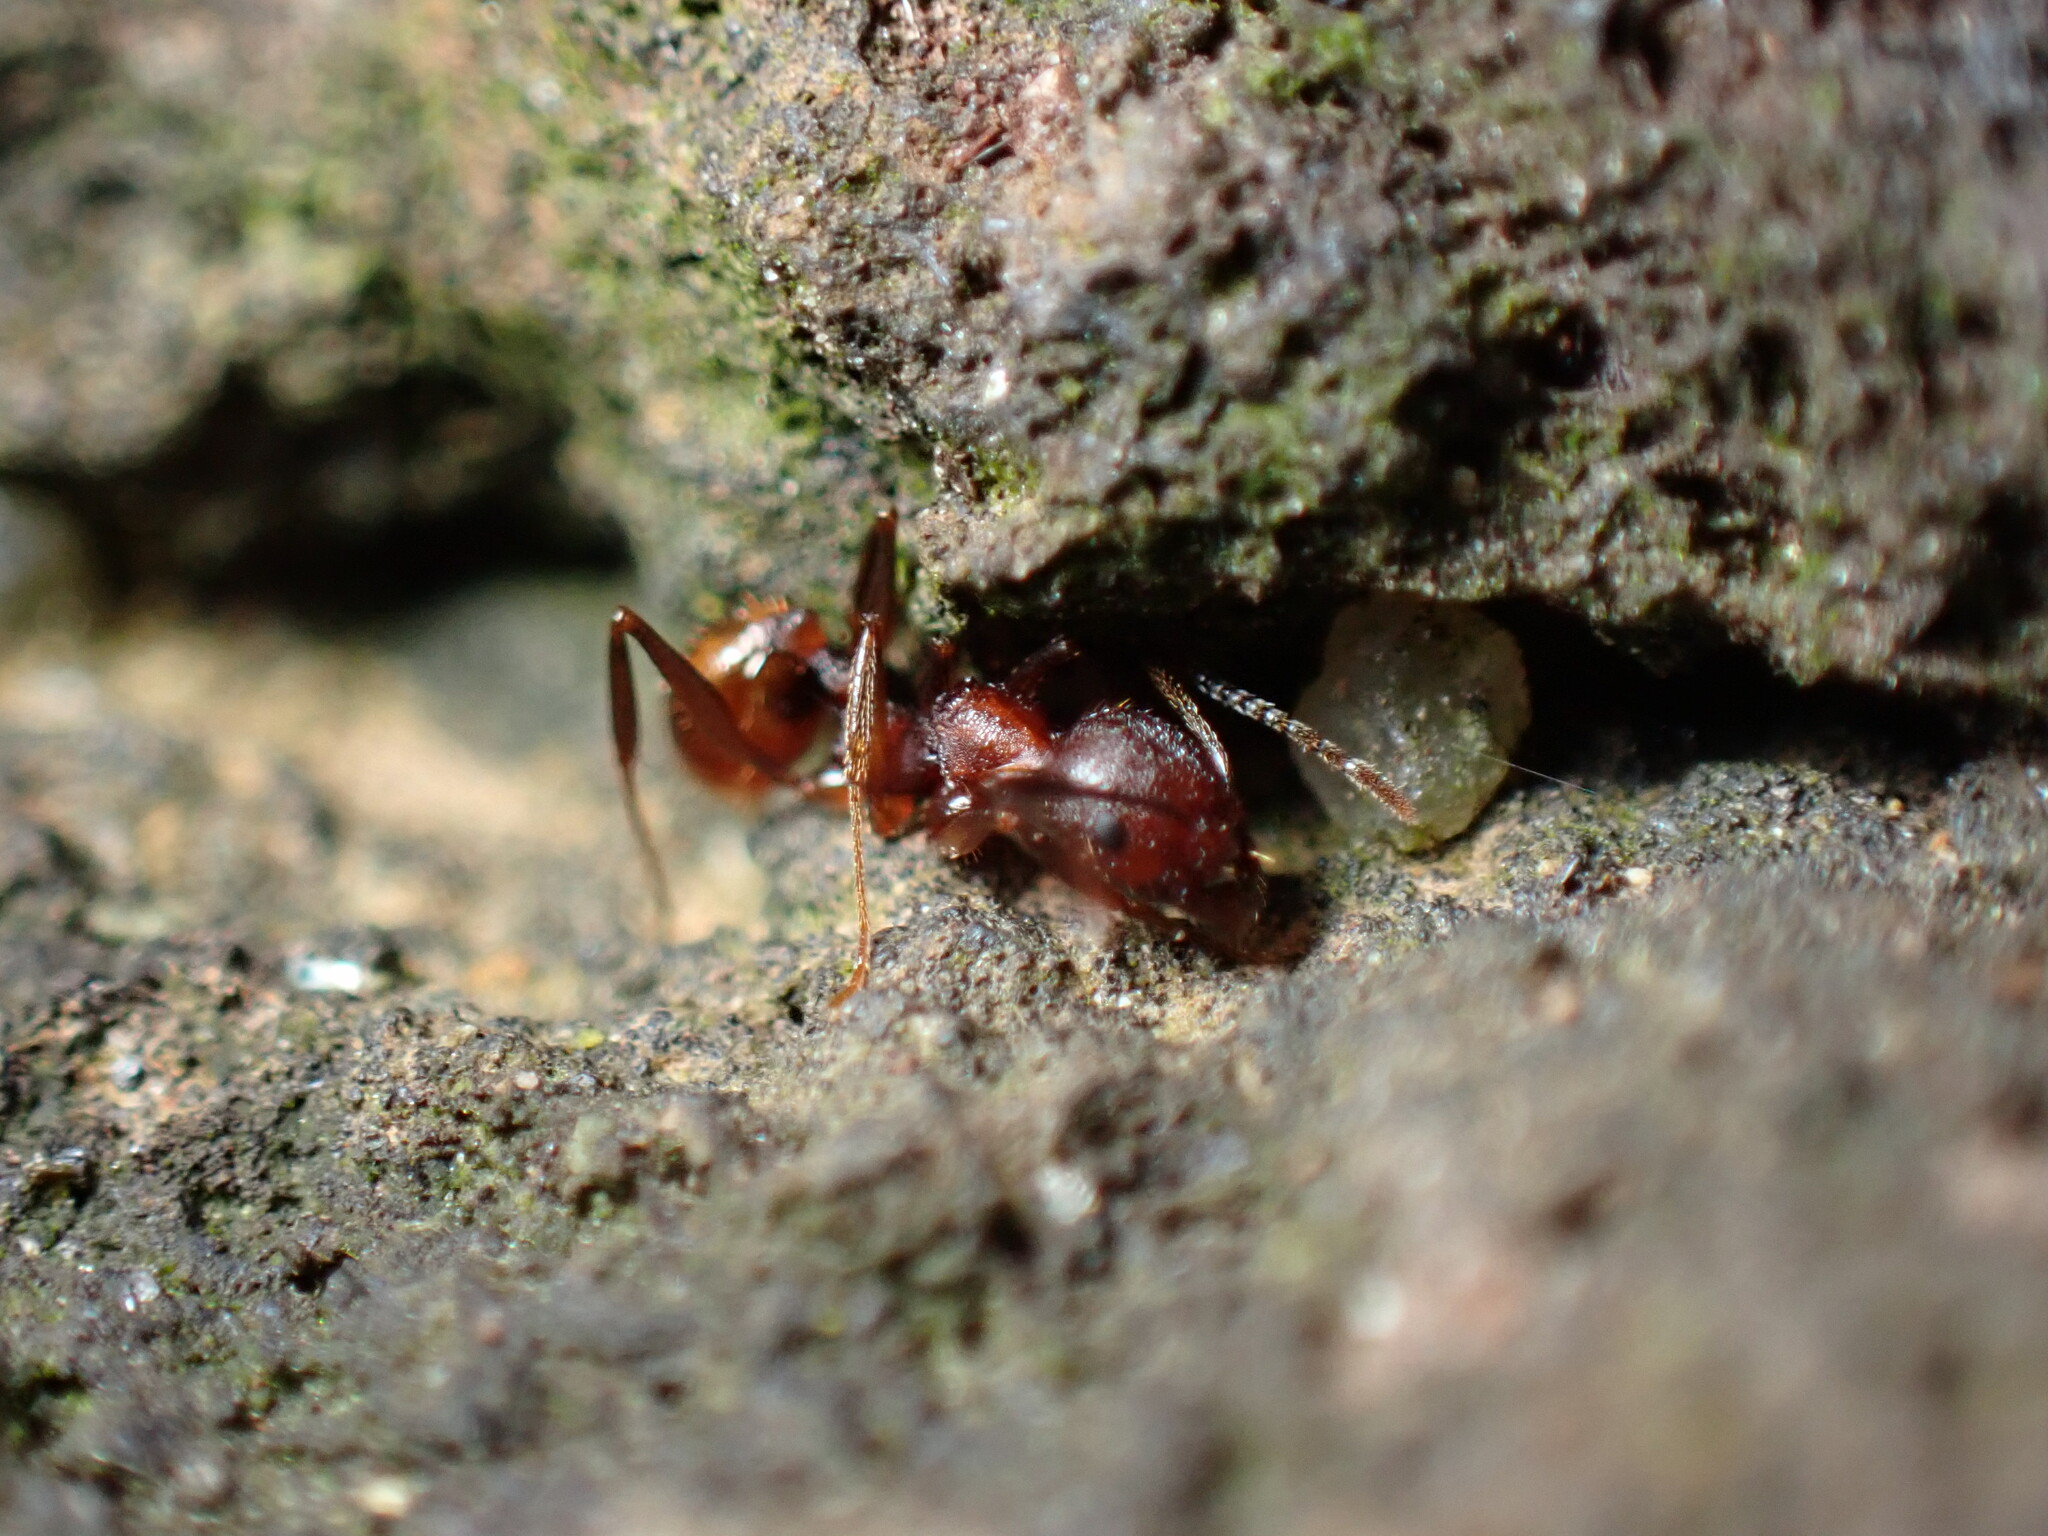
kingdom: Animalia
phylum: Arthropoda
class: Insecta
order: Hymenoptera
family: Formicidae
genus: Aphaenogaster
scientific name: Aphaenogaster fulva
